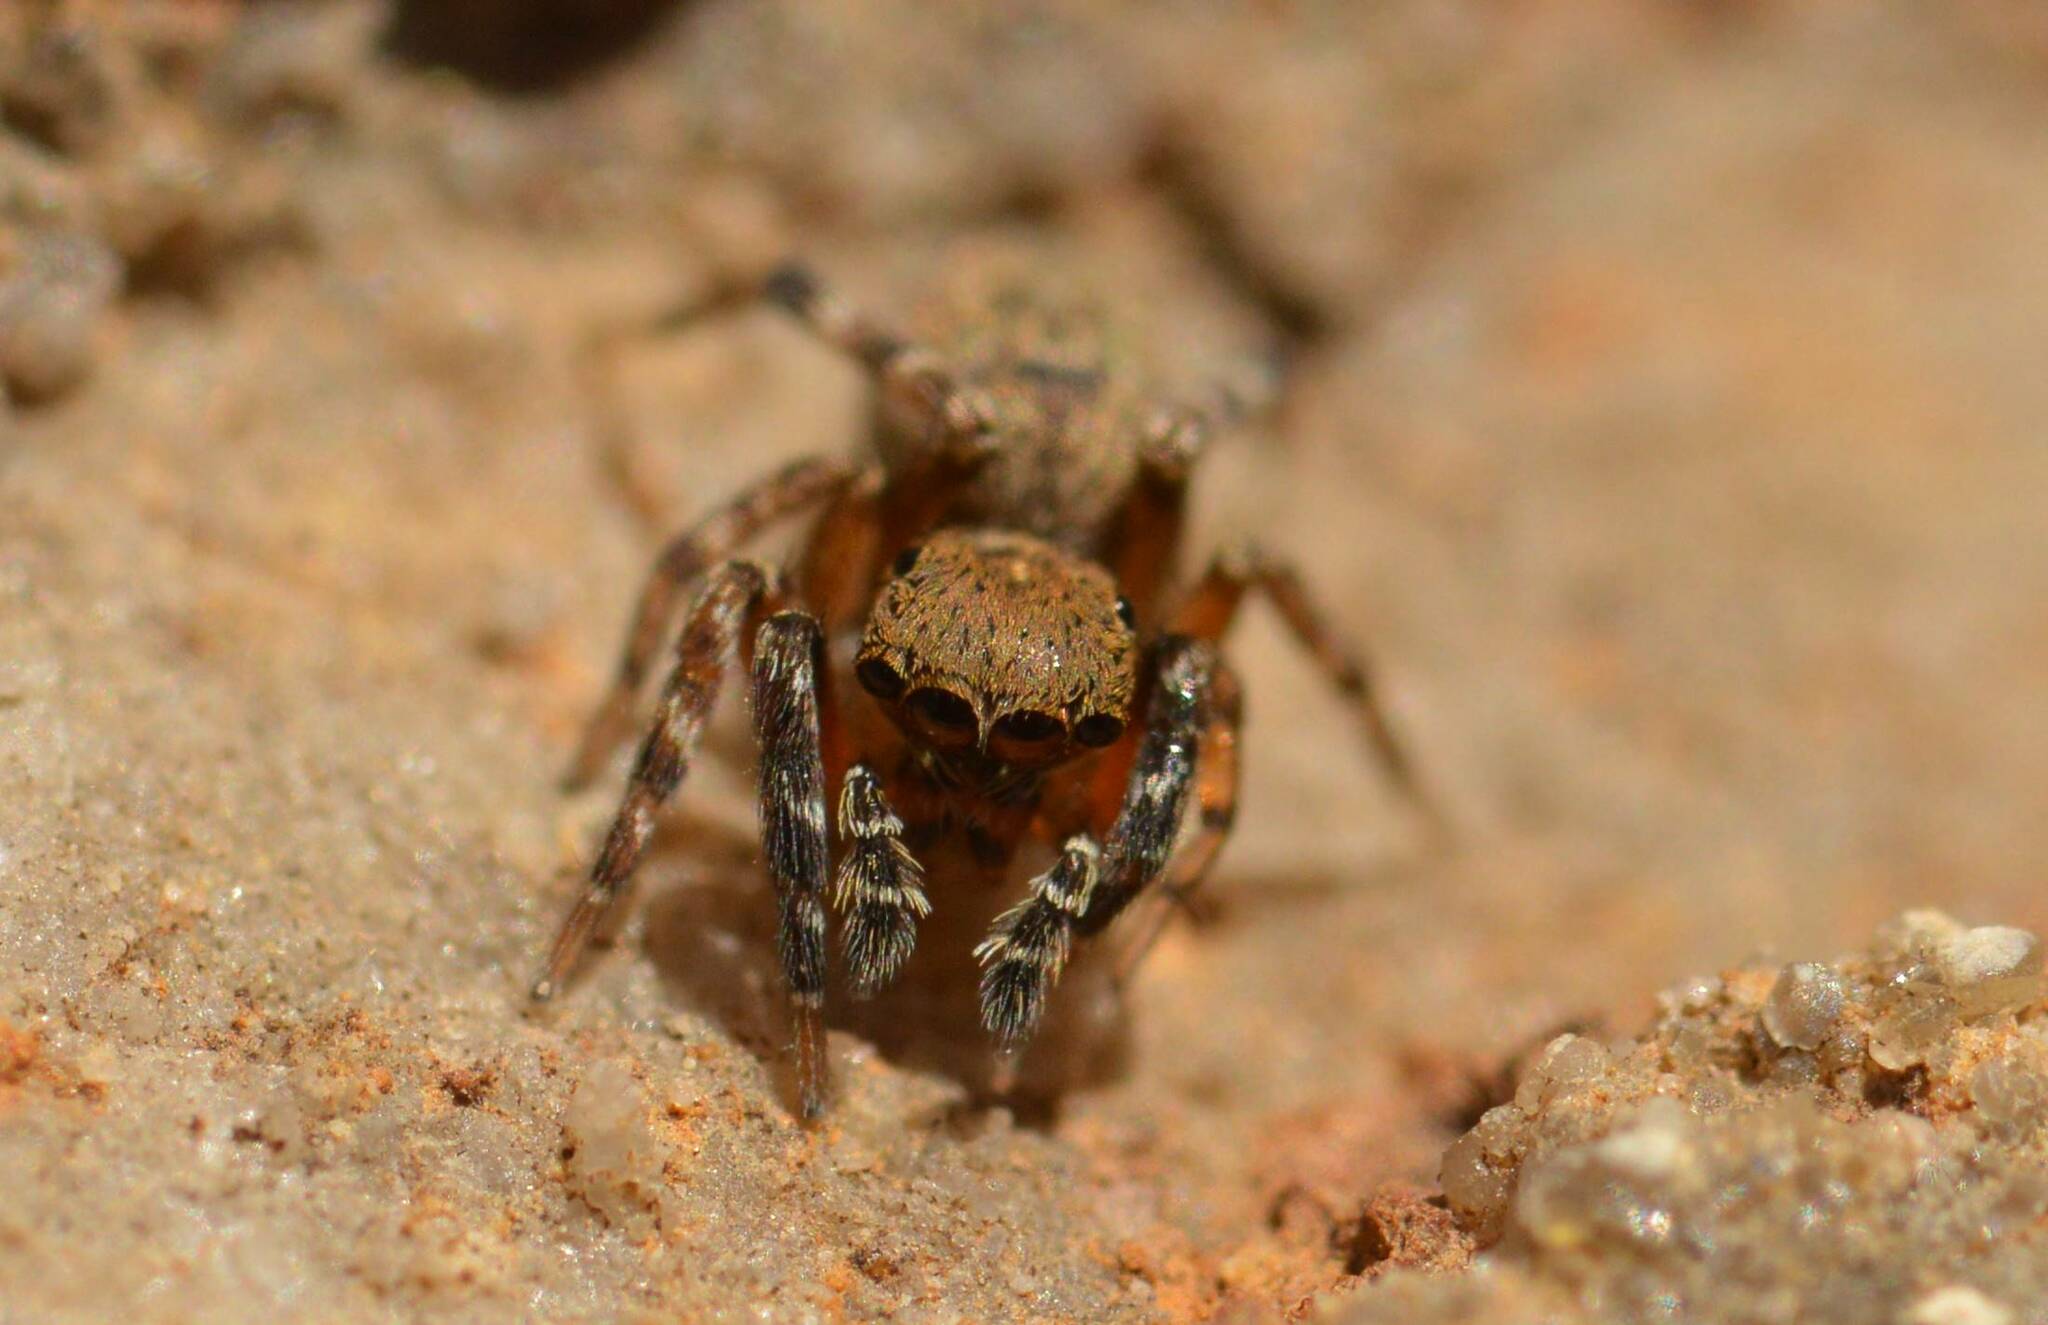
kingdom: Animalia
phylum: Arthropoda
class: Arachnida
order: Araneae
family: Salticidae
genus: Cyrba
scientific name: Cyrba algerina
